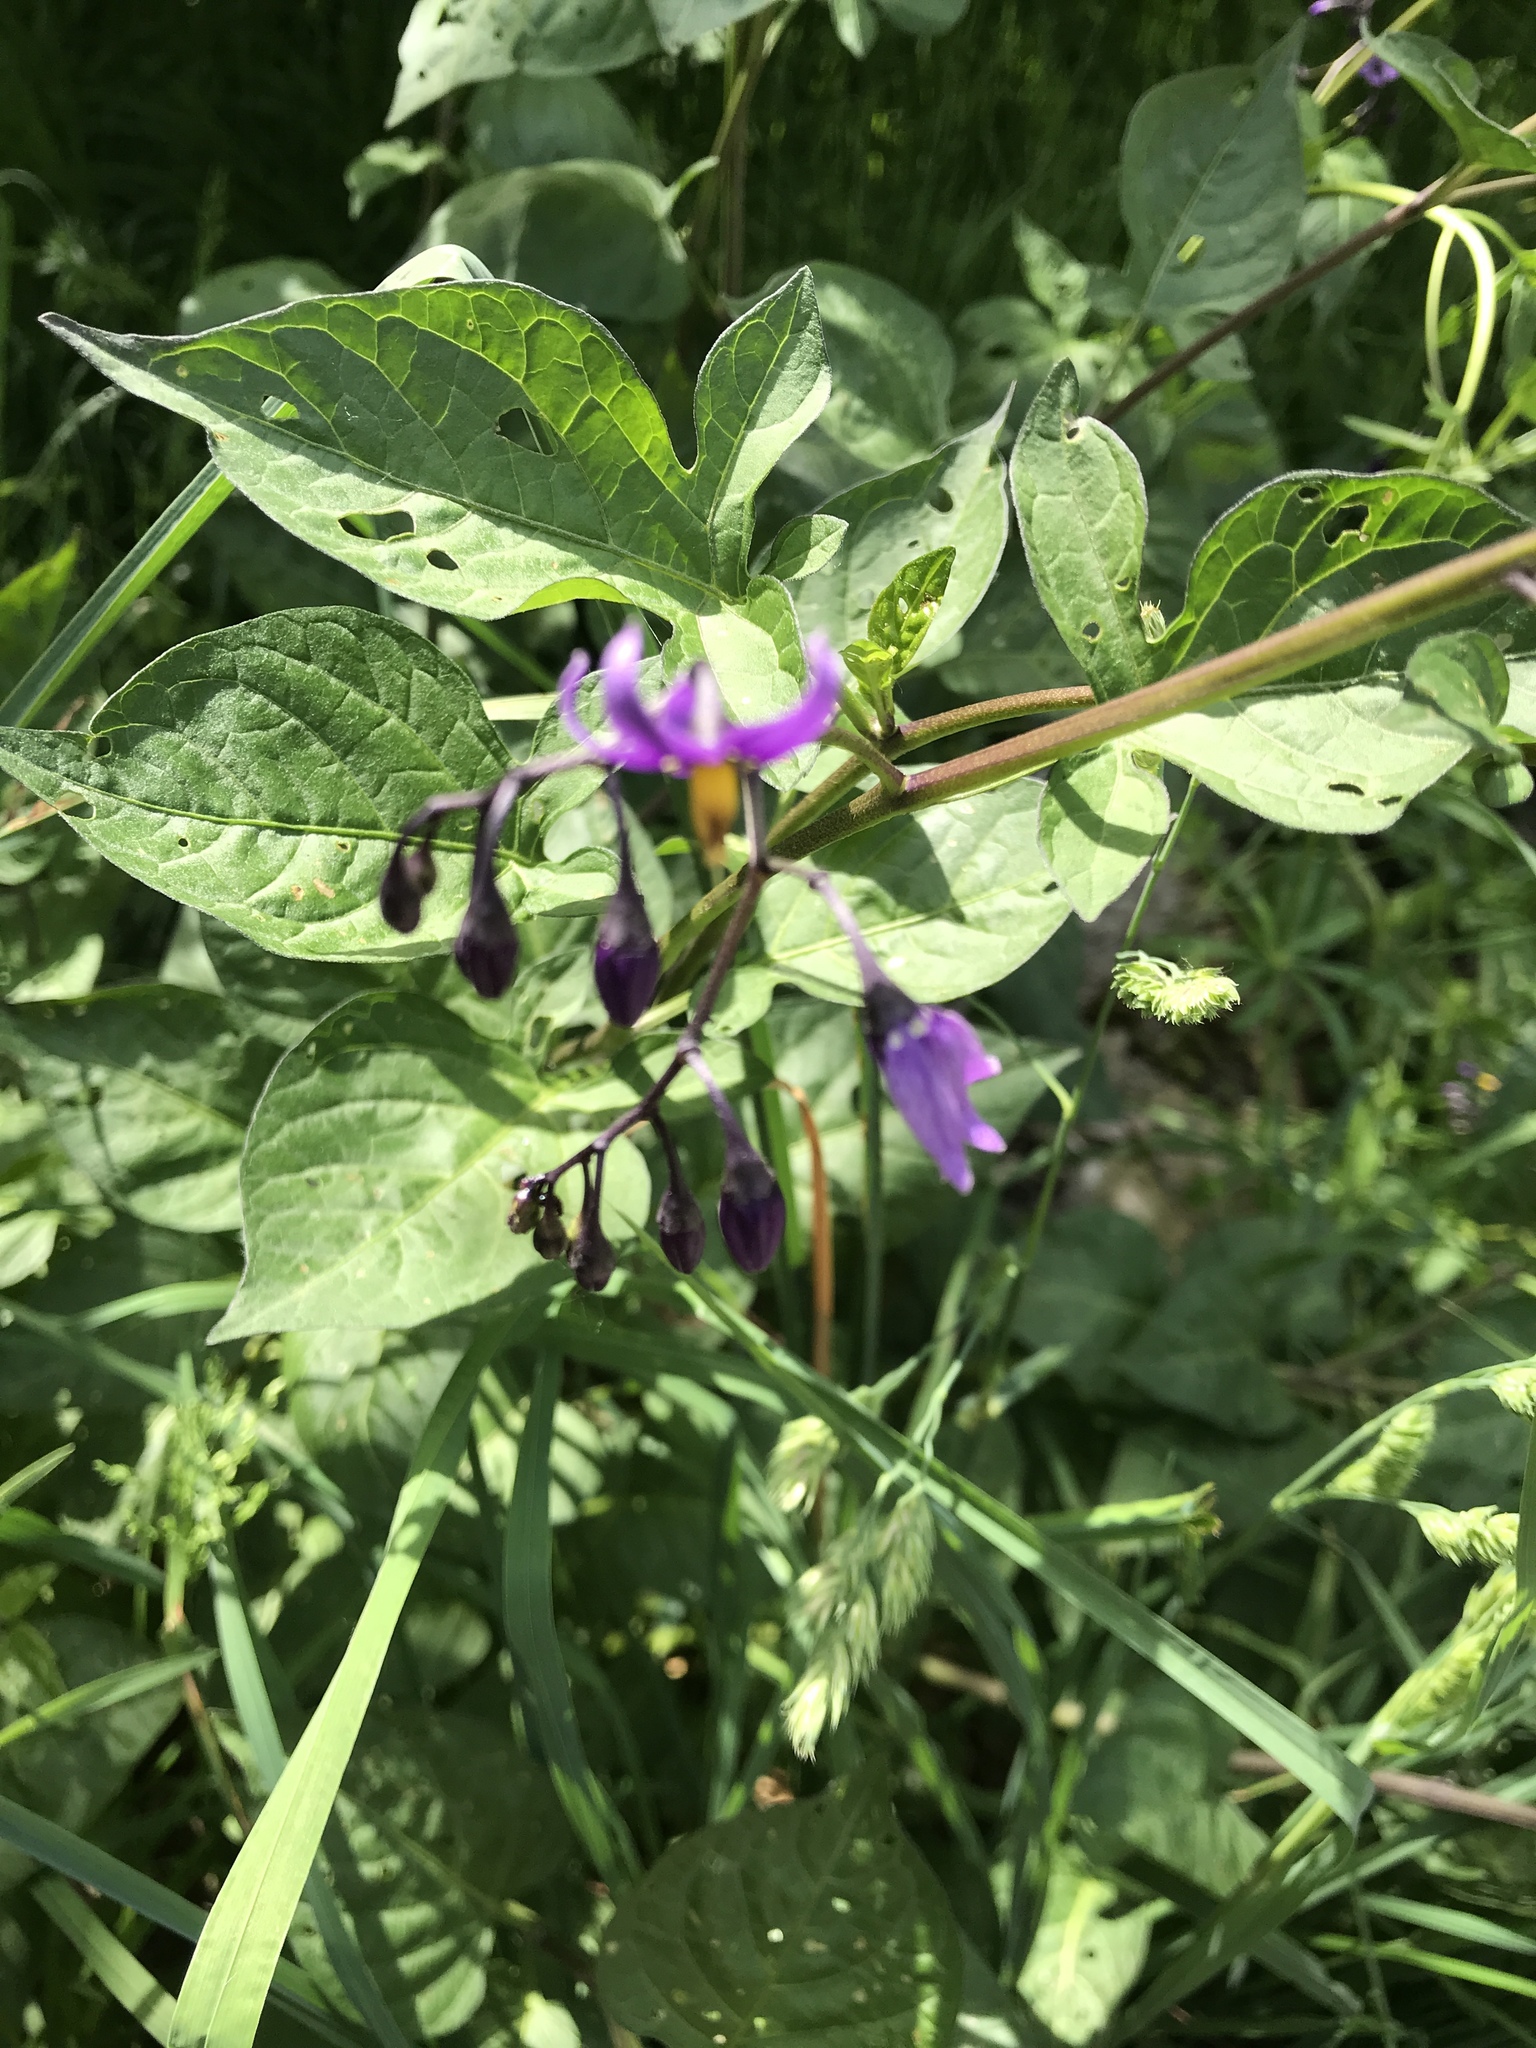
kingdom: Plantae
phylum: Tracheophyta
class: Magnoliopsida
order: Solanales
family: Solanaceae
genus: Solanum
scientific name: Solanum dulcamara
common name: Climbing nightshade
